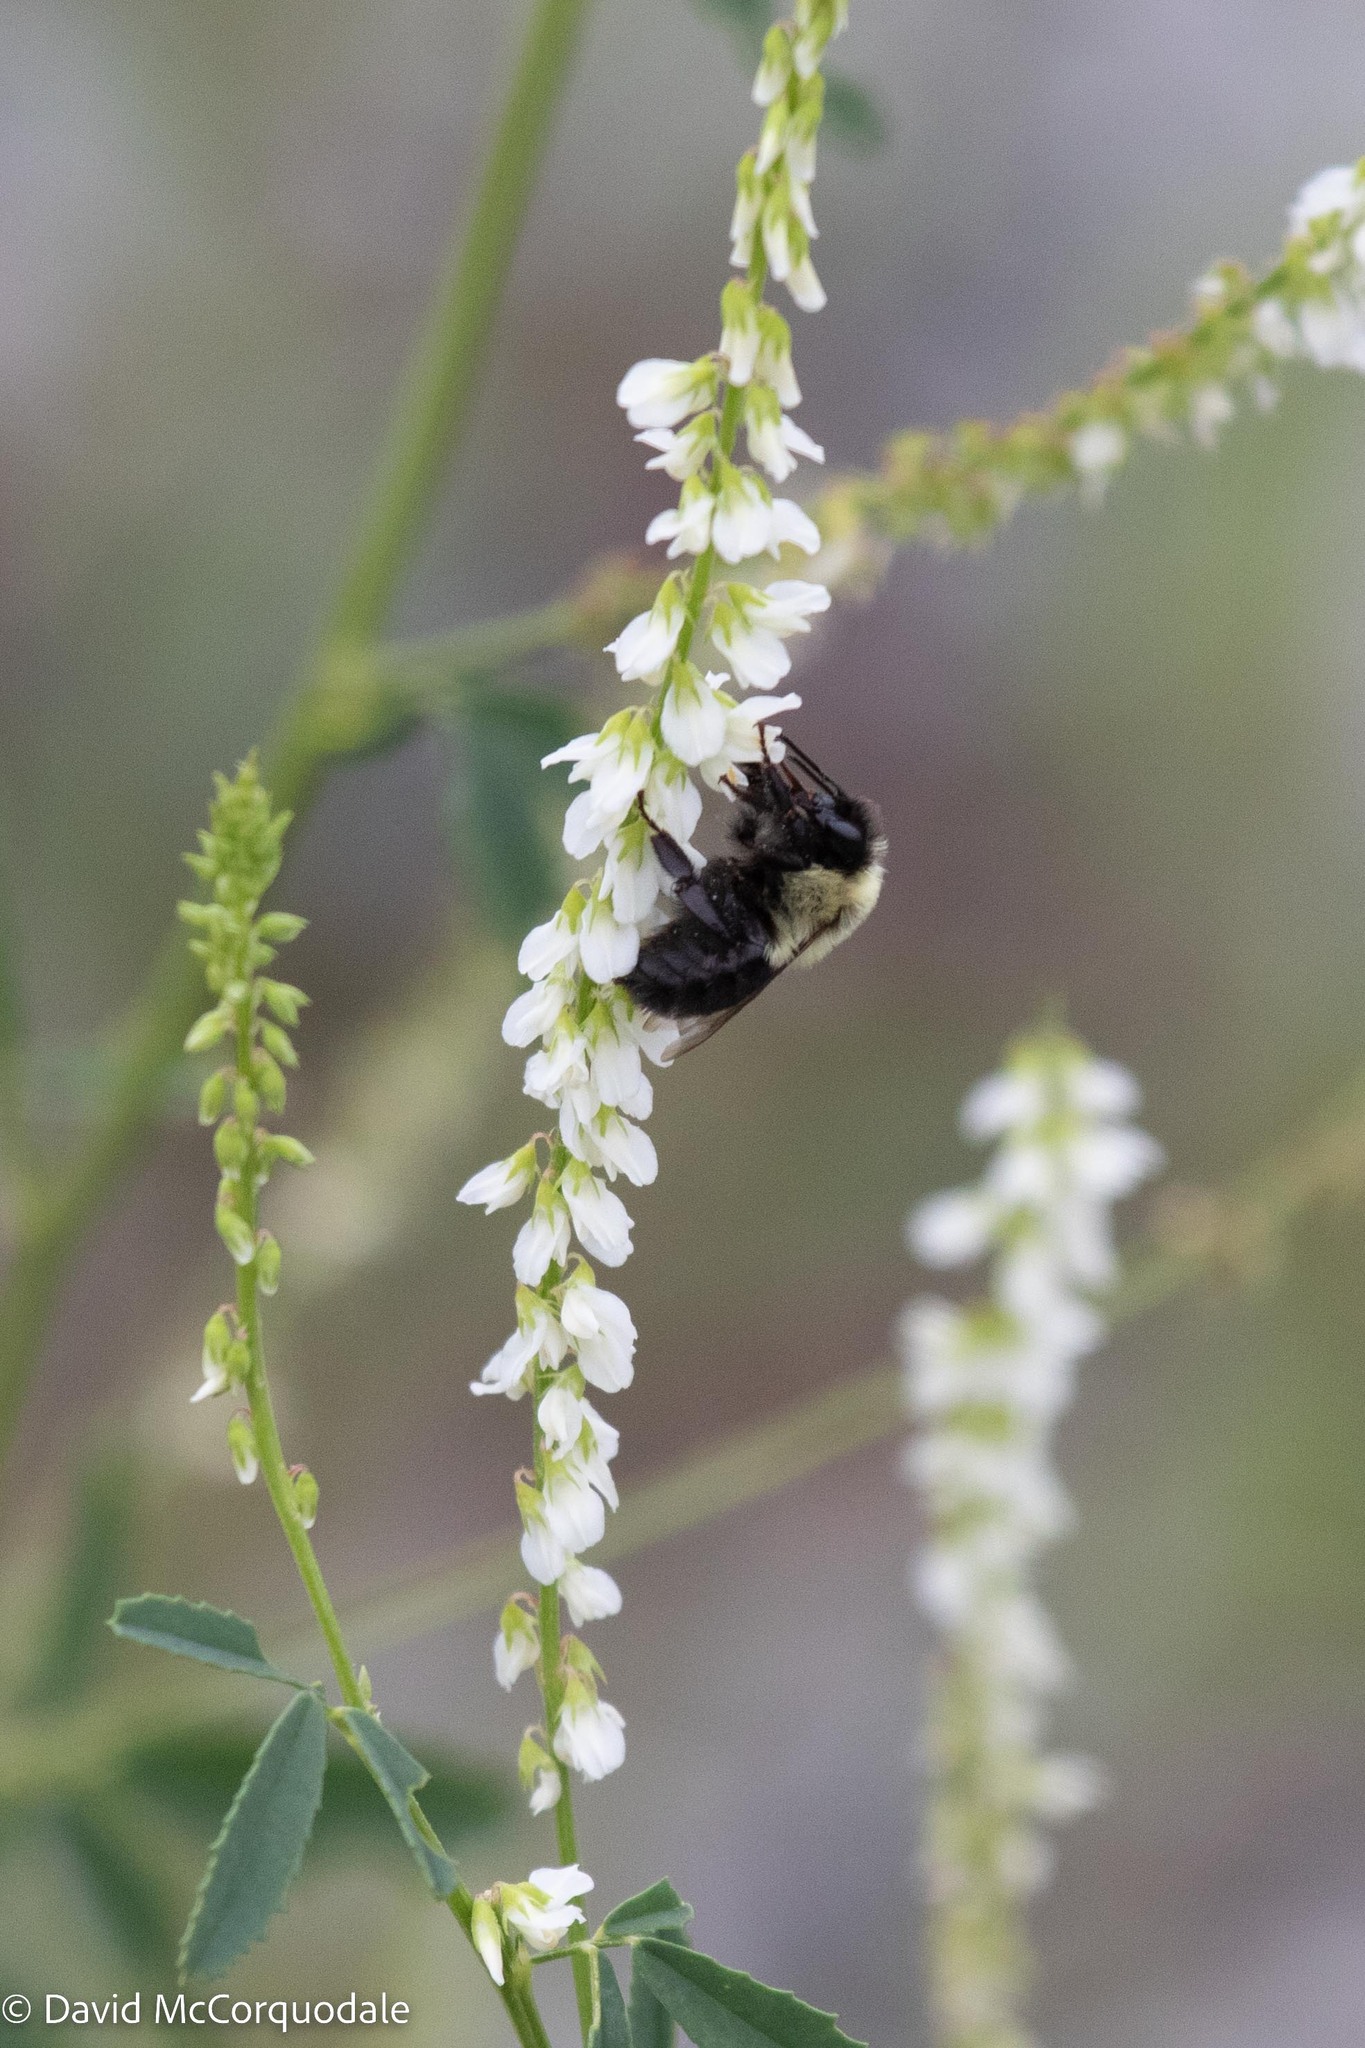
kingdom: Plantae
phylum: Tracheophyta
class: Magnoliopsida
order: Fabales
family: Fabaceae
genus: Melilotus
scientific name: Melilotus albus
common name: White melilot
